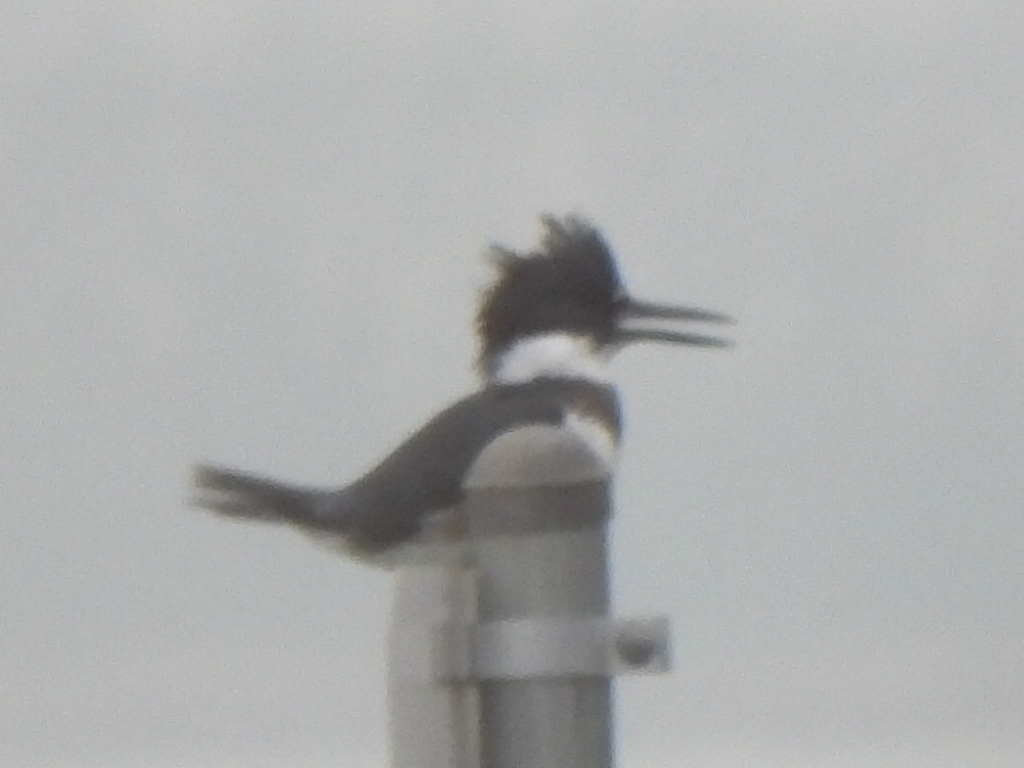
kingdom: Animalia
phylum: Chordata
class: Aves
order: Coraciiformes
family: Alcedinidae
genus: Megaceryle
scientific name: Megaceryle alcyon
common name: Belted kingfisher
